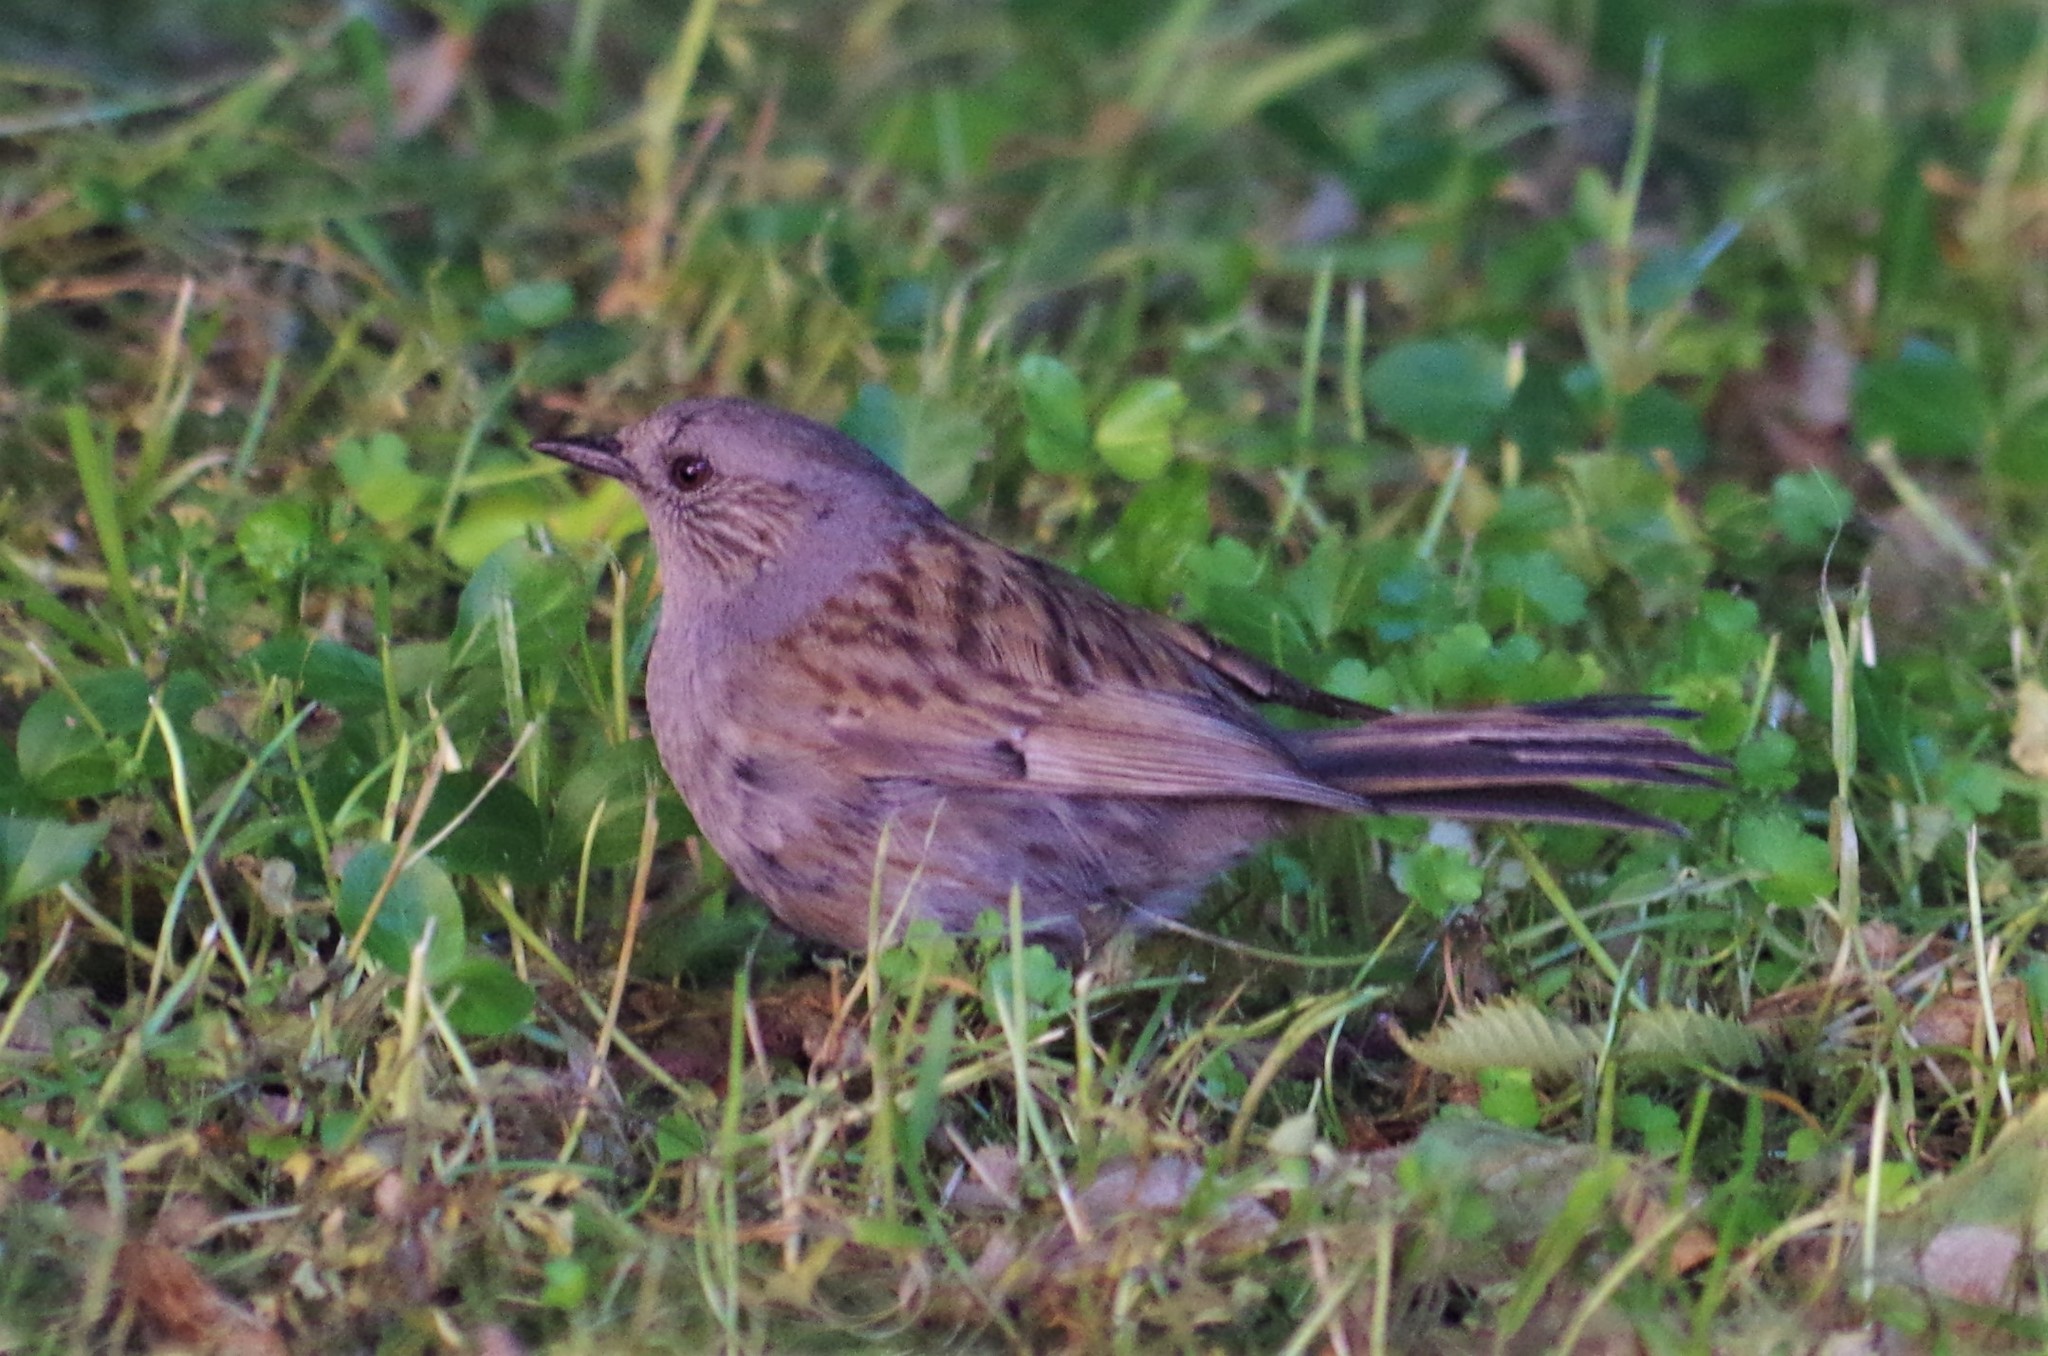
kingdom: Animalia
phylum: Chordata
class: Aves
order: Passeriformes
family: Prunellidae
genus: Prunella
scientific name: Prunella modularis
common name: Dunnock
